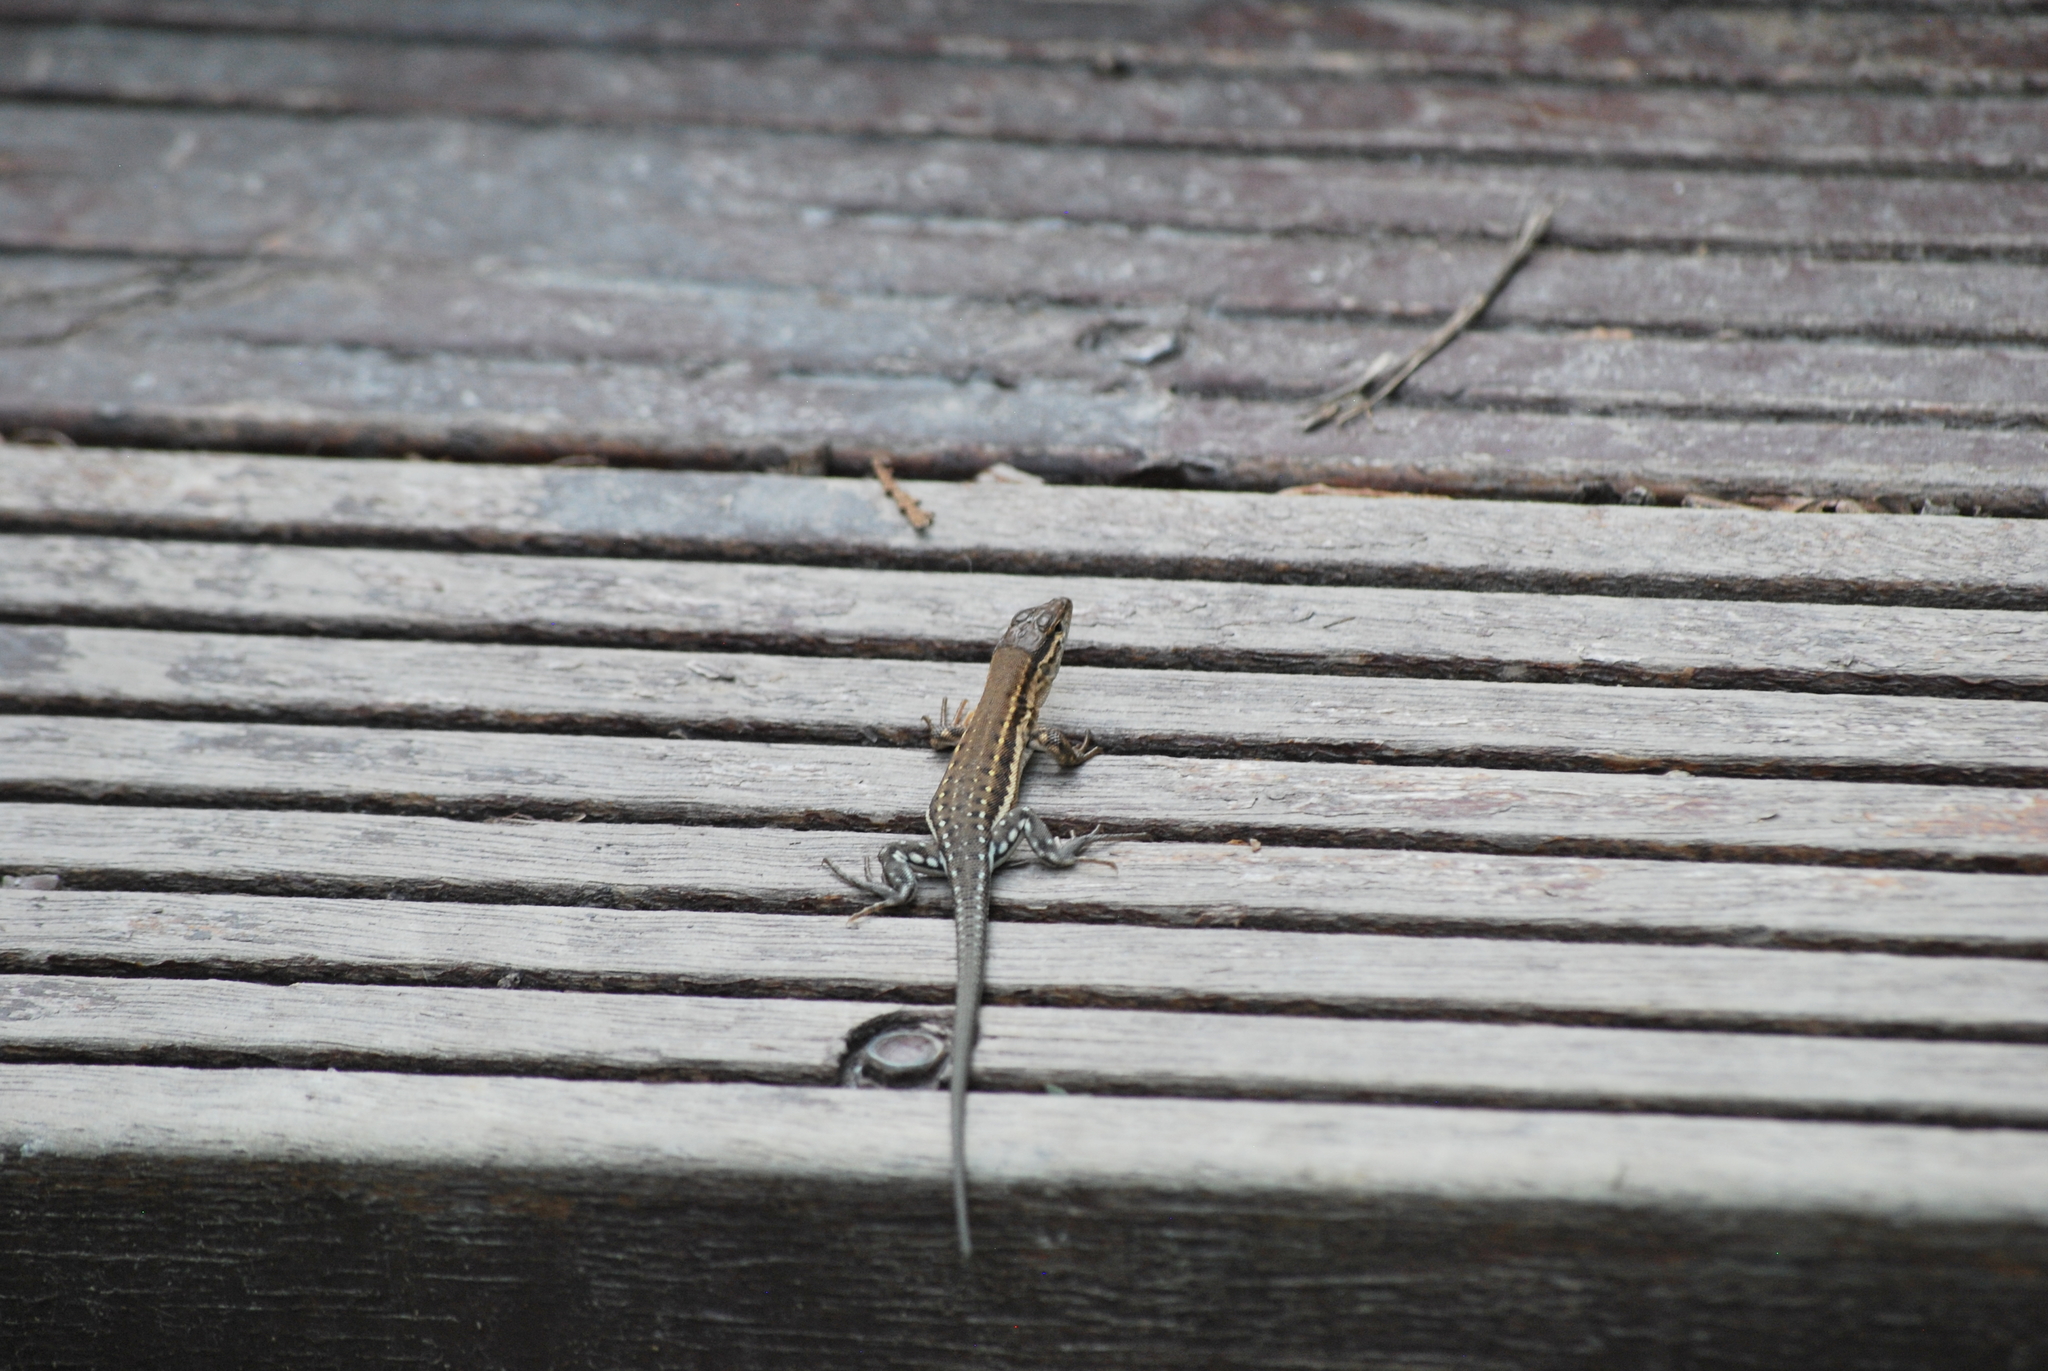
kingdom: Animalia
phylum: Chordata
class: Squamata
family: Lacertidae
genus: Eremias
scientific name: Eremias brenchleyi
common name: Ordos racerunner
